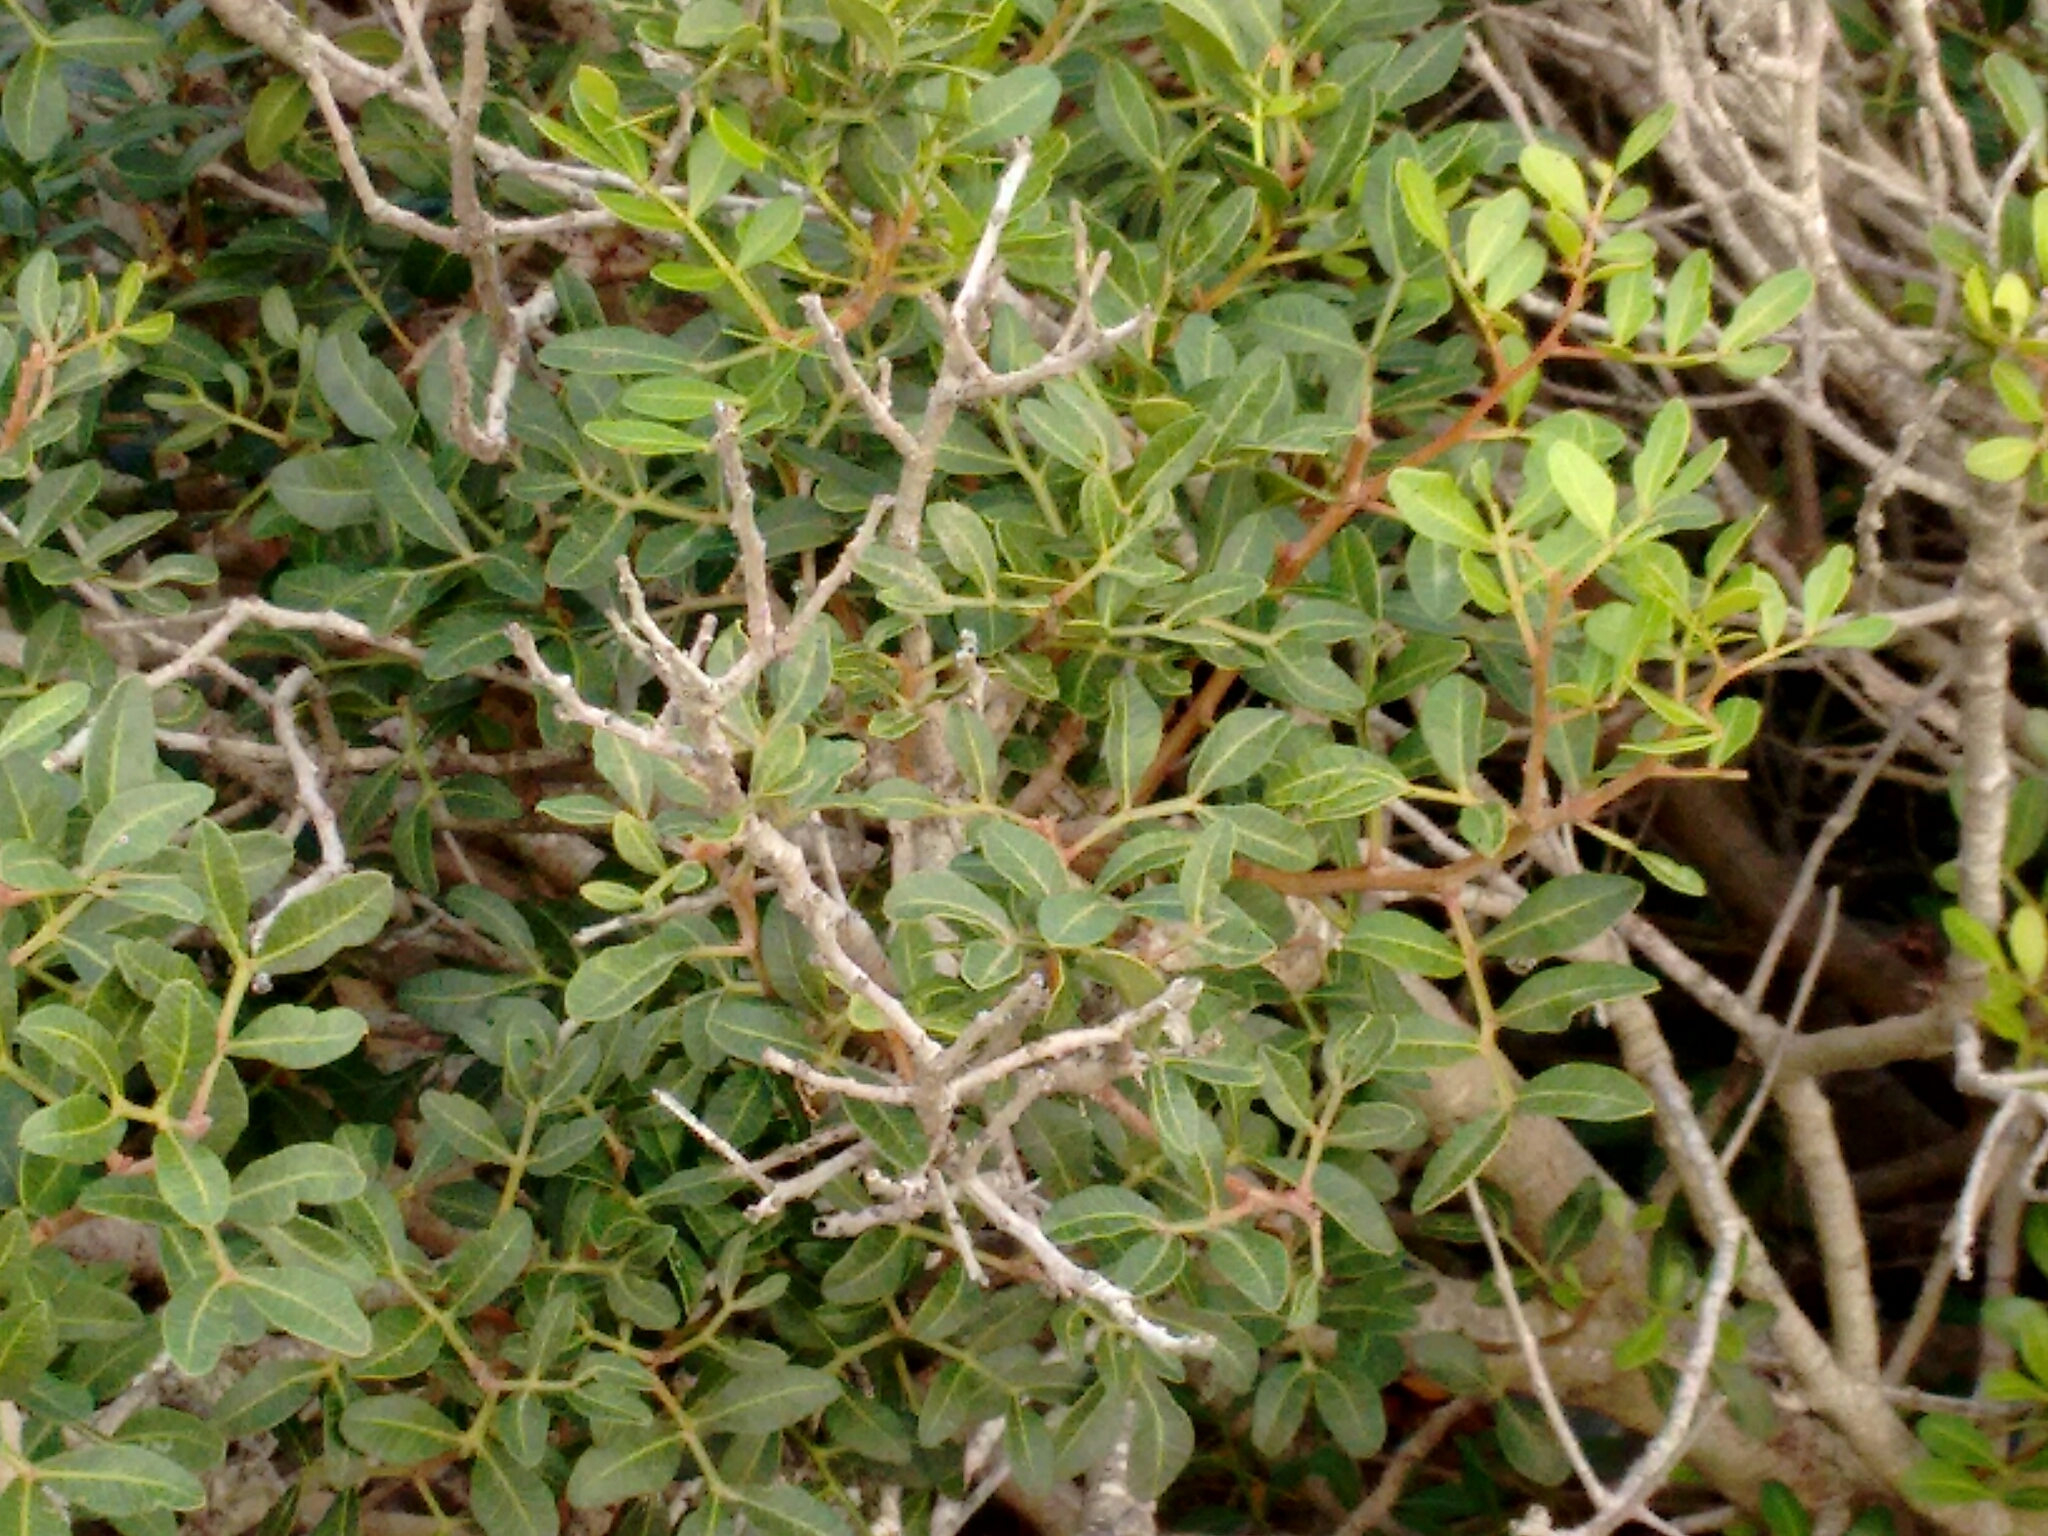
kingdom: Plantae
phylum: Tracheophyta
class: Magnoliopsida
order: Sapindales
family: Anacardiaceae
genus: Pistacia
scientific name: Pistacia lentiscus
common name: Lentisk
